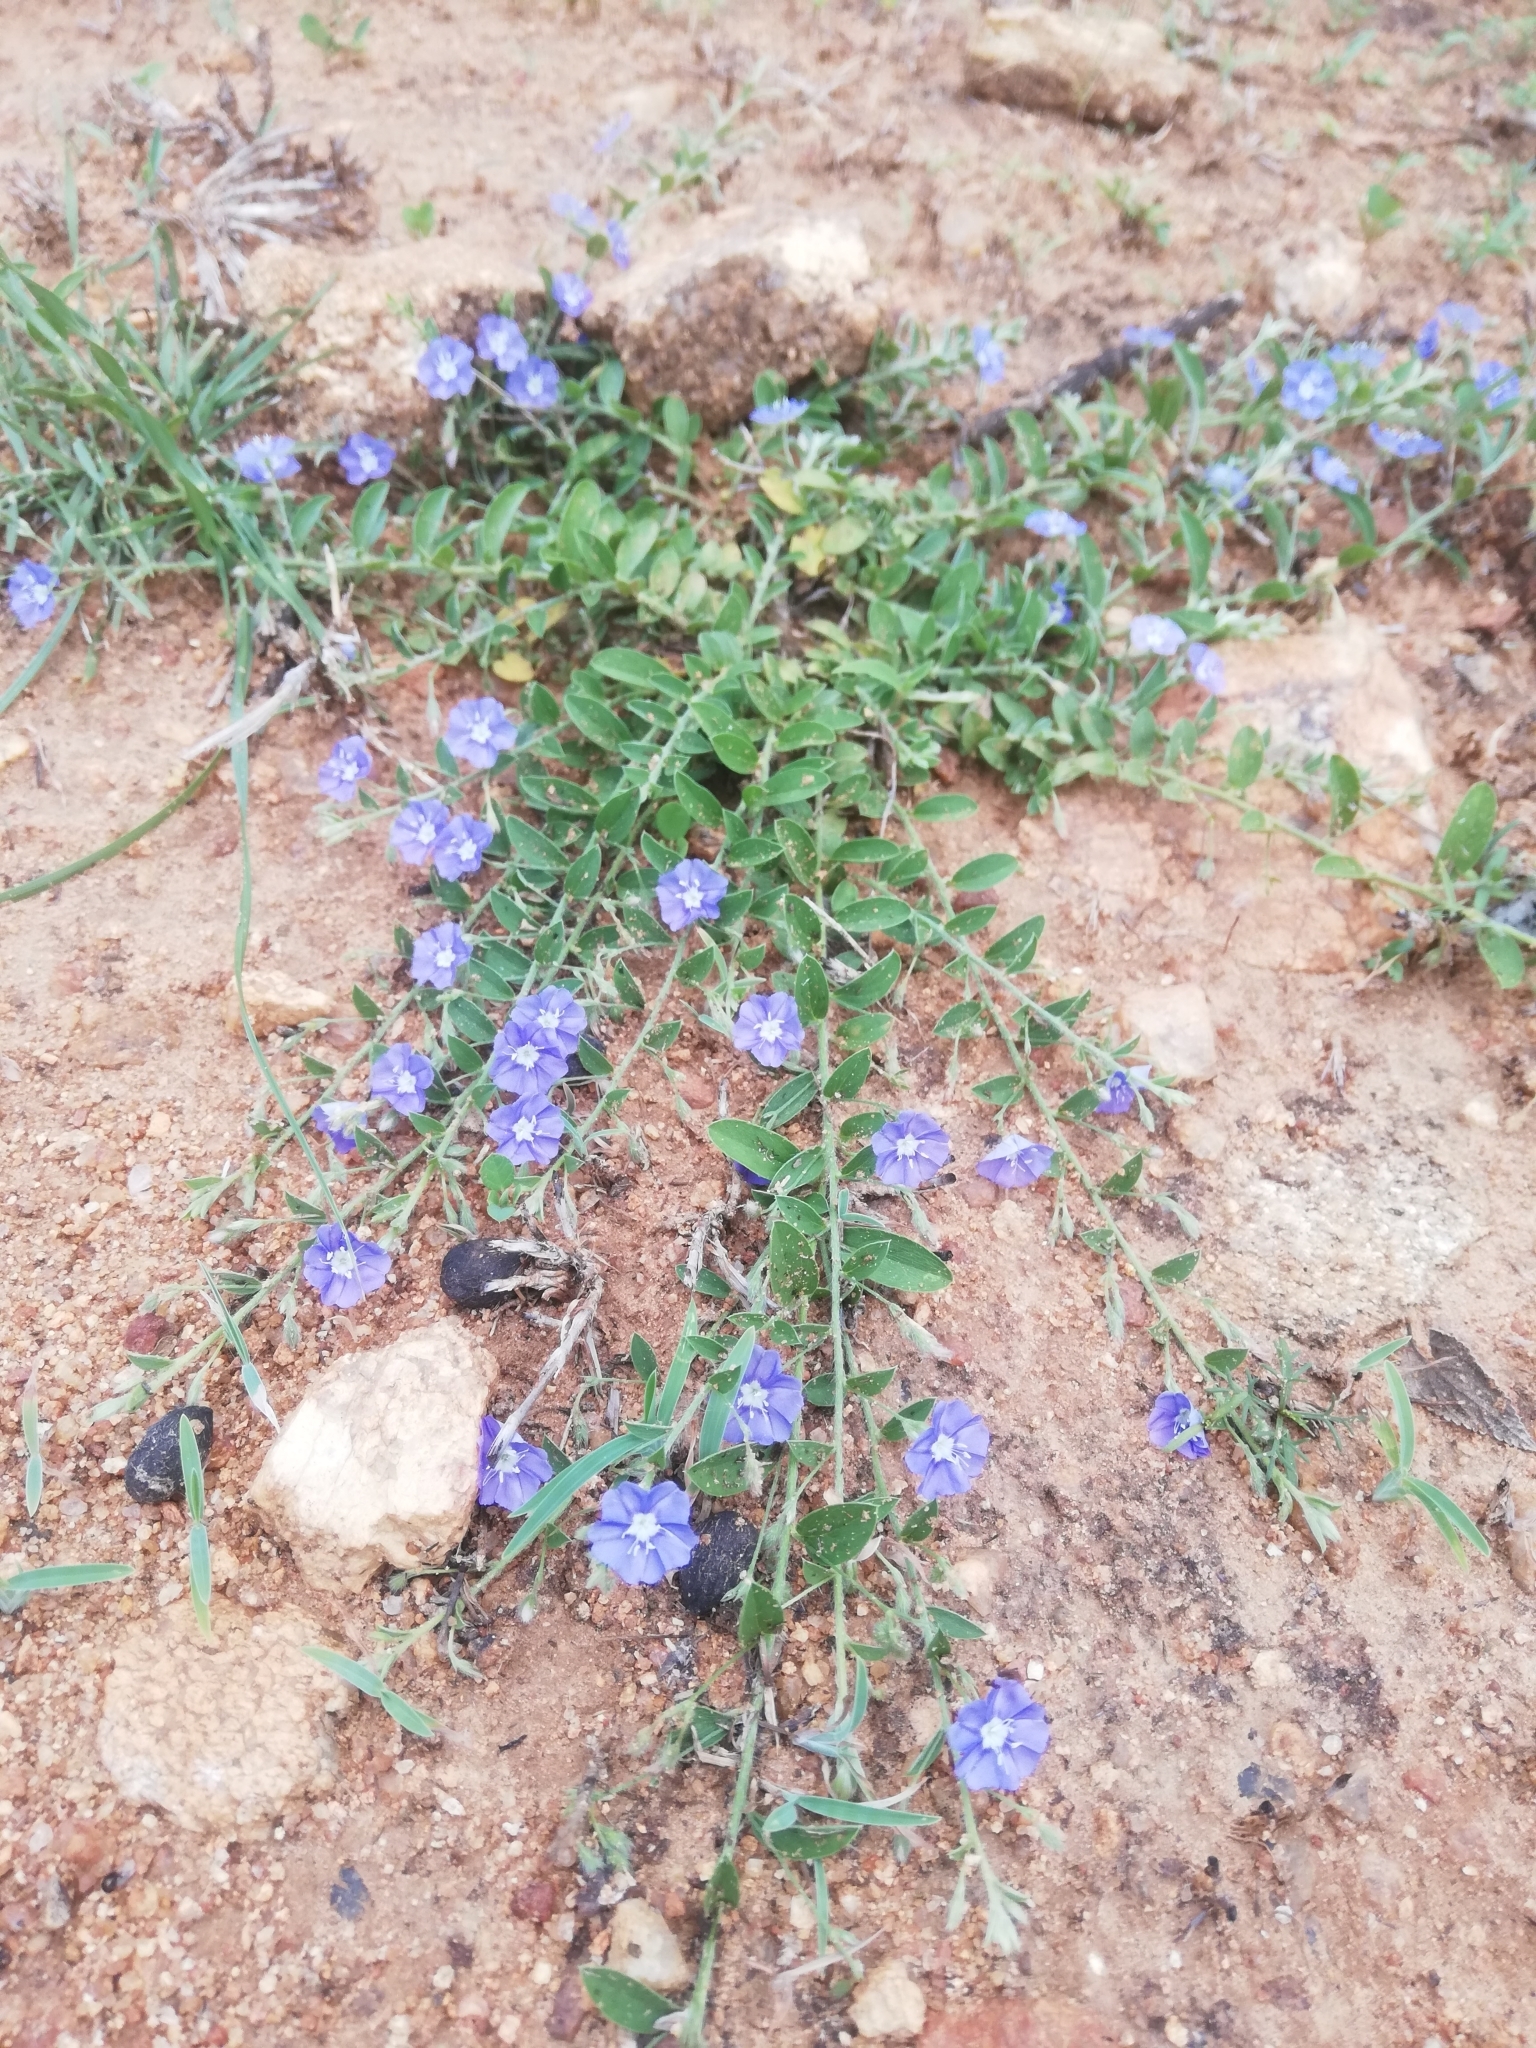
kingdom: Plantae
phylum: Tracheophyta
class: Magnoliopsida
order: Solanales
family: Convolvulaceae
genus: Evolvulus
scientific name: Evolvulus alsinoides
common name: Slender dwarf morning-glory
